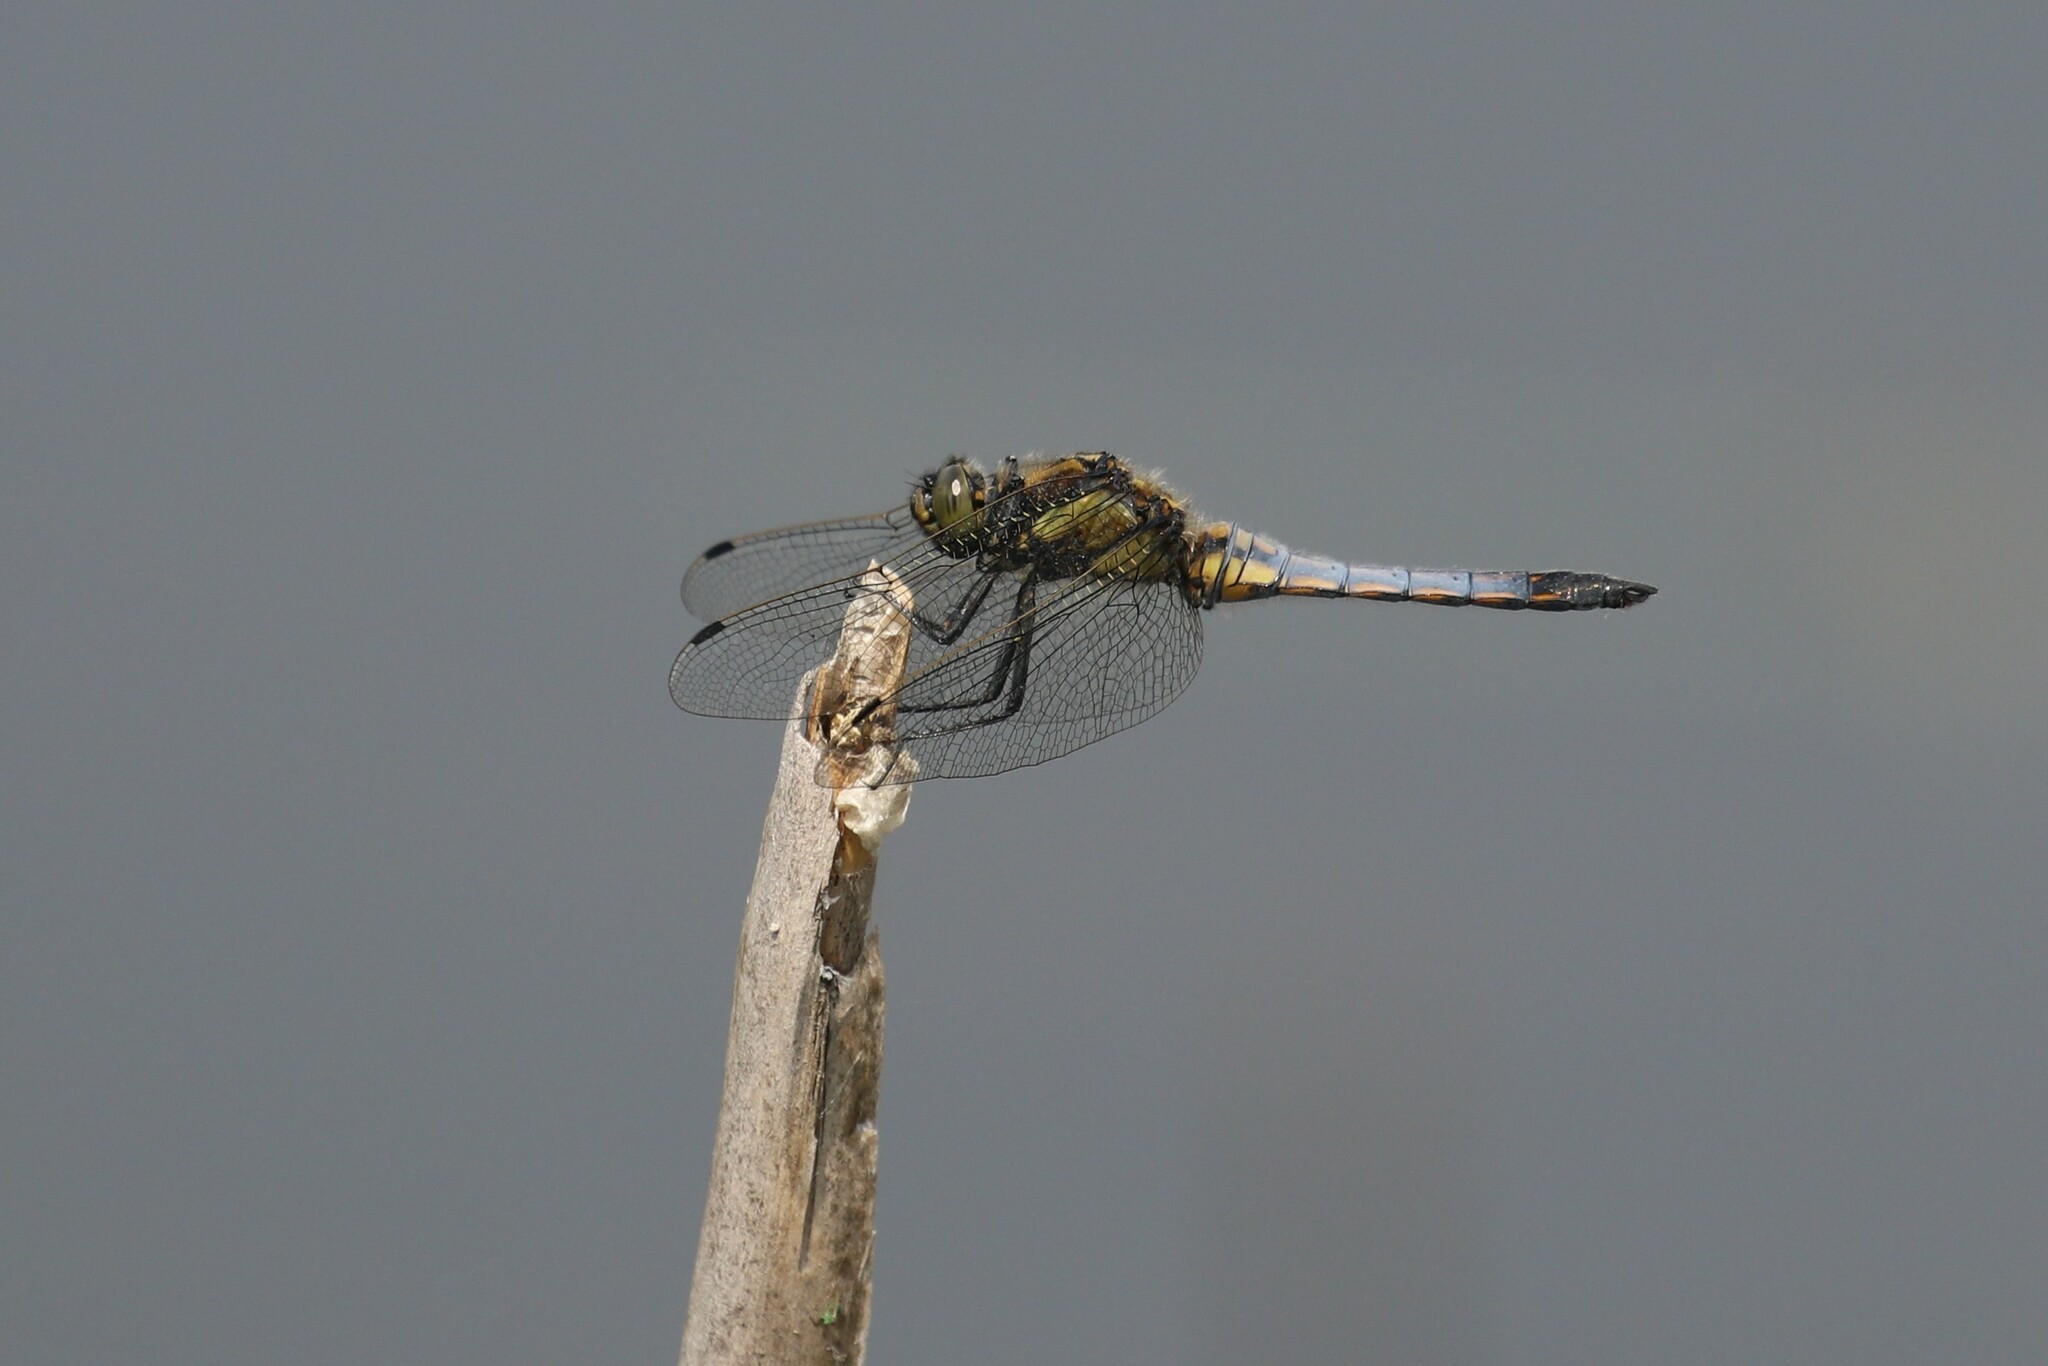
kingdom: Animalia
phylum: Arthropoda
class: Insecta
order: Odonata
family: Libellulidae
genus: Orthetrum
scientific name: Orthetrum cancellatum
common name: Black-tailed skimmer
